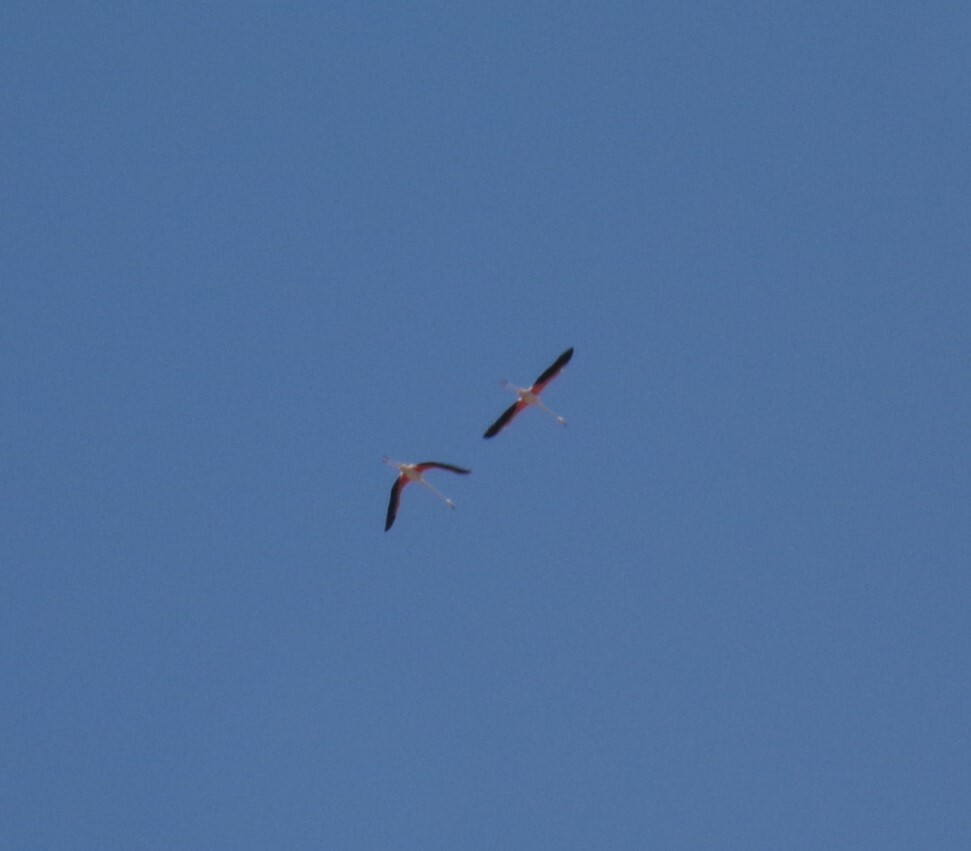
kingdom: Animalia
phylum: Chordata
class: Aves
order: Phoenicopteriformes
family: Phoenicopteridae
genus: Phoenicopterus
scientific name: Phoenicopterus roseus
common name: Greater flamingo
